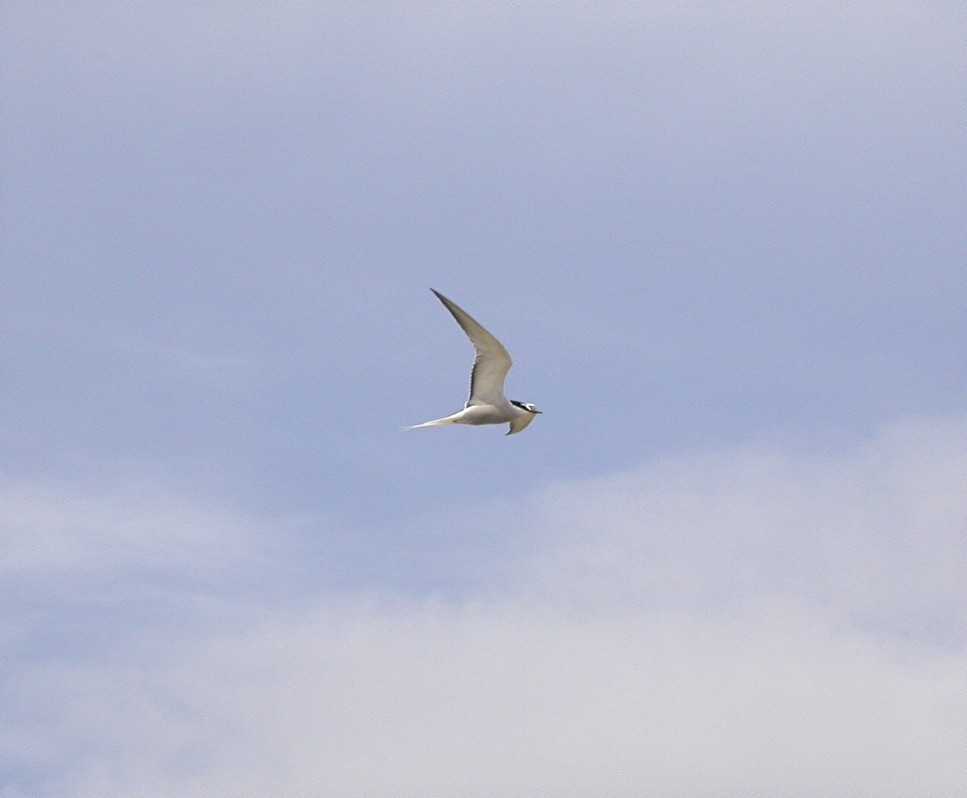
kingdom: Animalia
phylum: Chordata
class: Aves
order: Charadriiformes
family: Laridae
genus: Onychoprion
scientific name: Onychoprion aleuticus
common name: Aleutian tern
